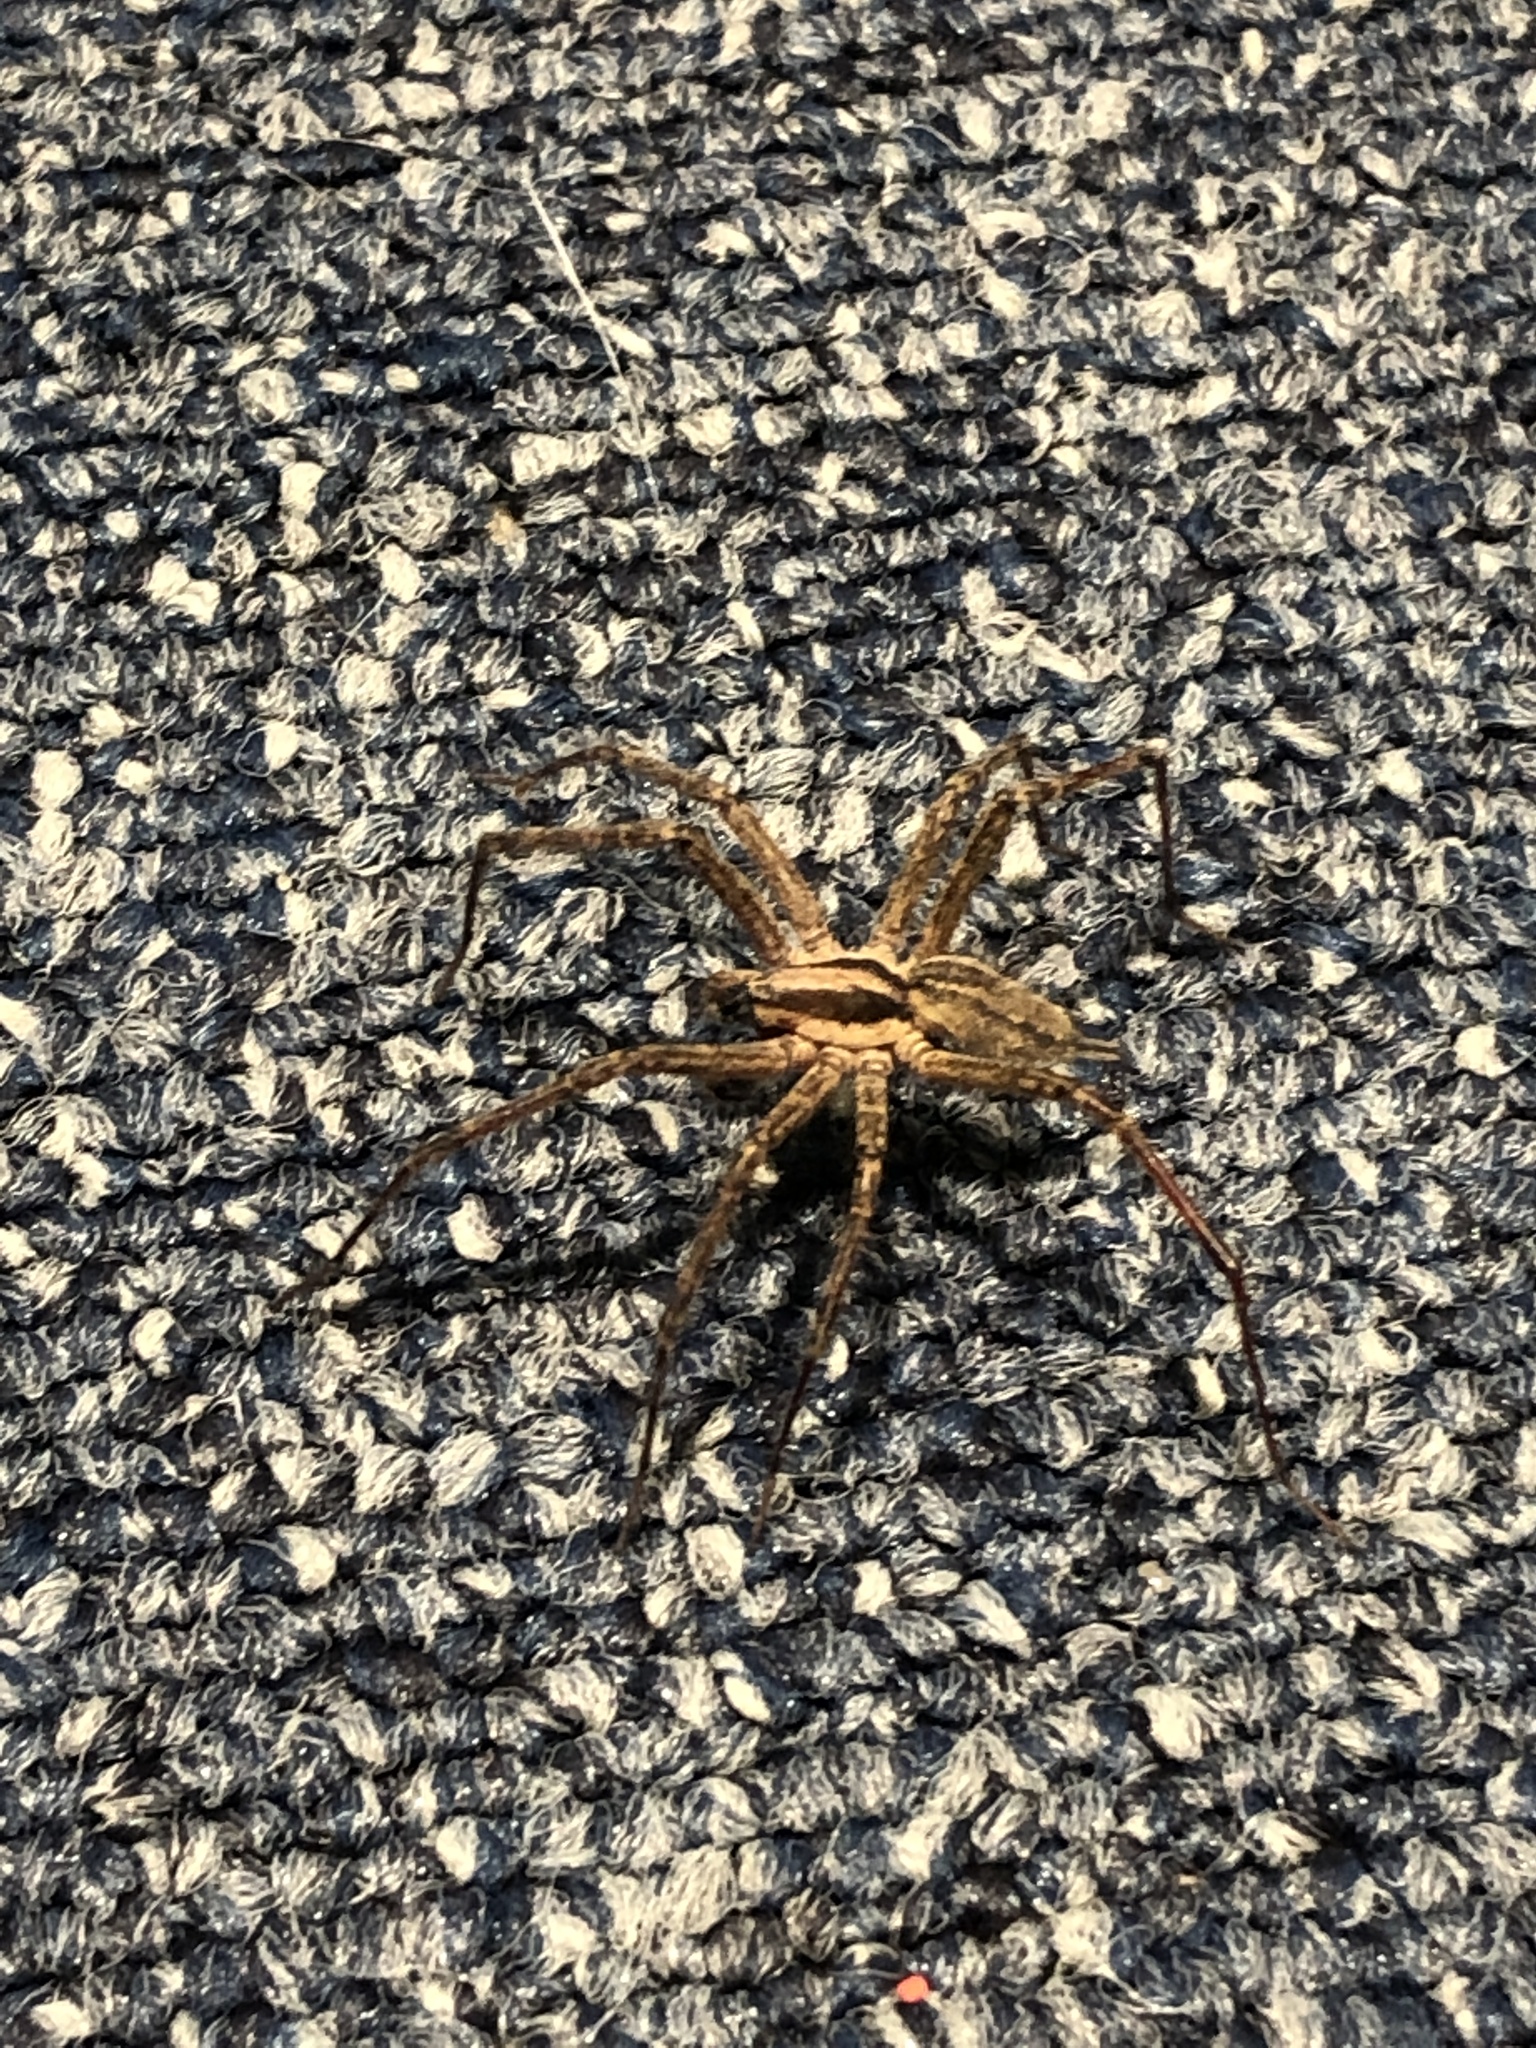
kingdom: Animalia
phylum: Arthropoda
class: Arachnida
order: Araneae
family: Agelenidae
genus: Agelenopsis
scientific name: Agelenopsis
